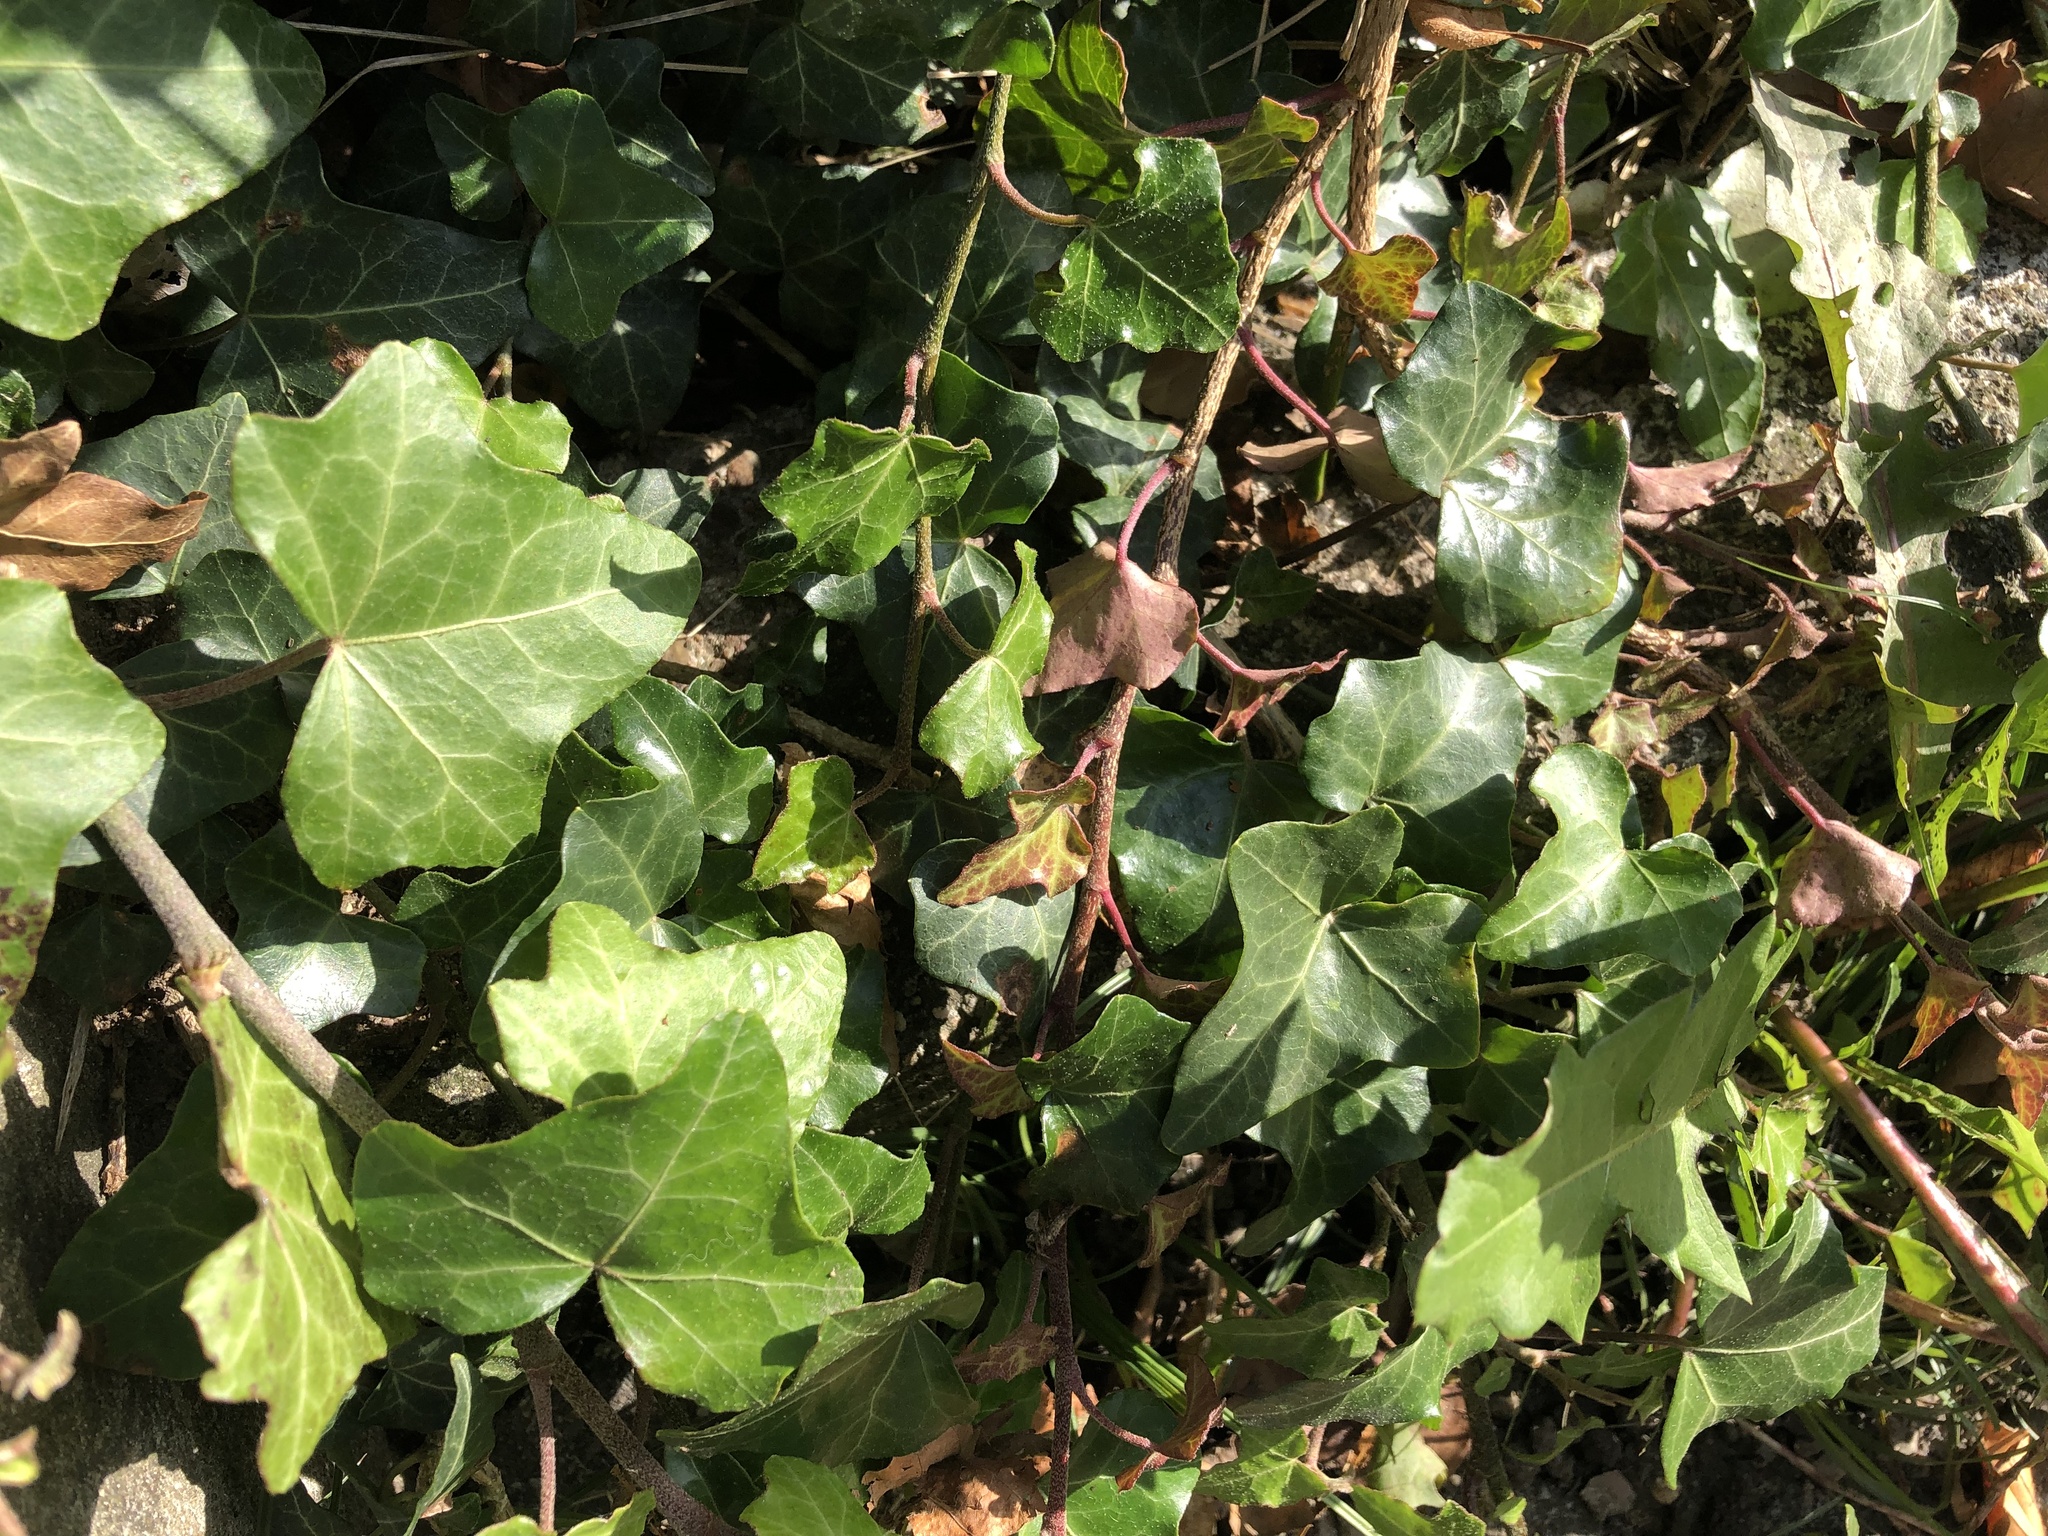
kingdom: Plantae
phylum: Tracheophyta
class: Magnoliopsida
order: Apiales
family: Araliaceae
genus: Hedera
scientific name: Hedera helix
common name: Ivy
